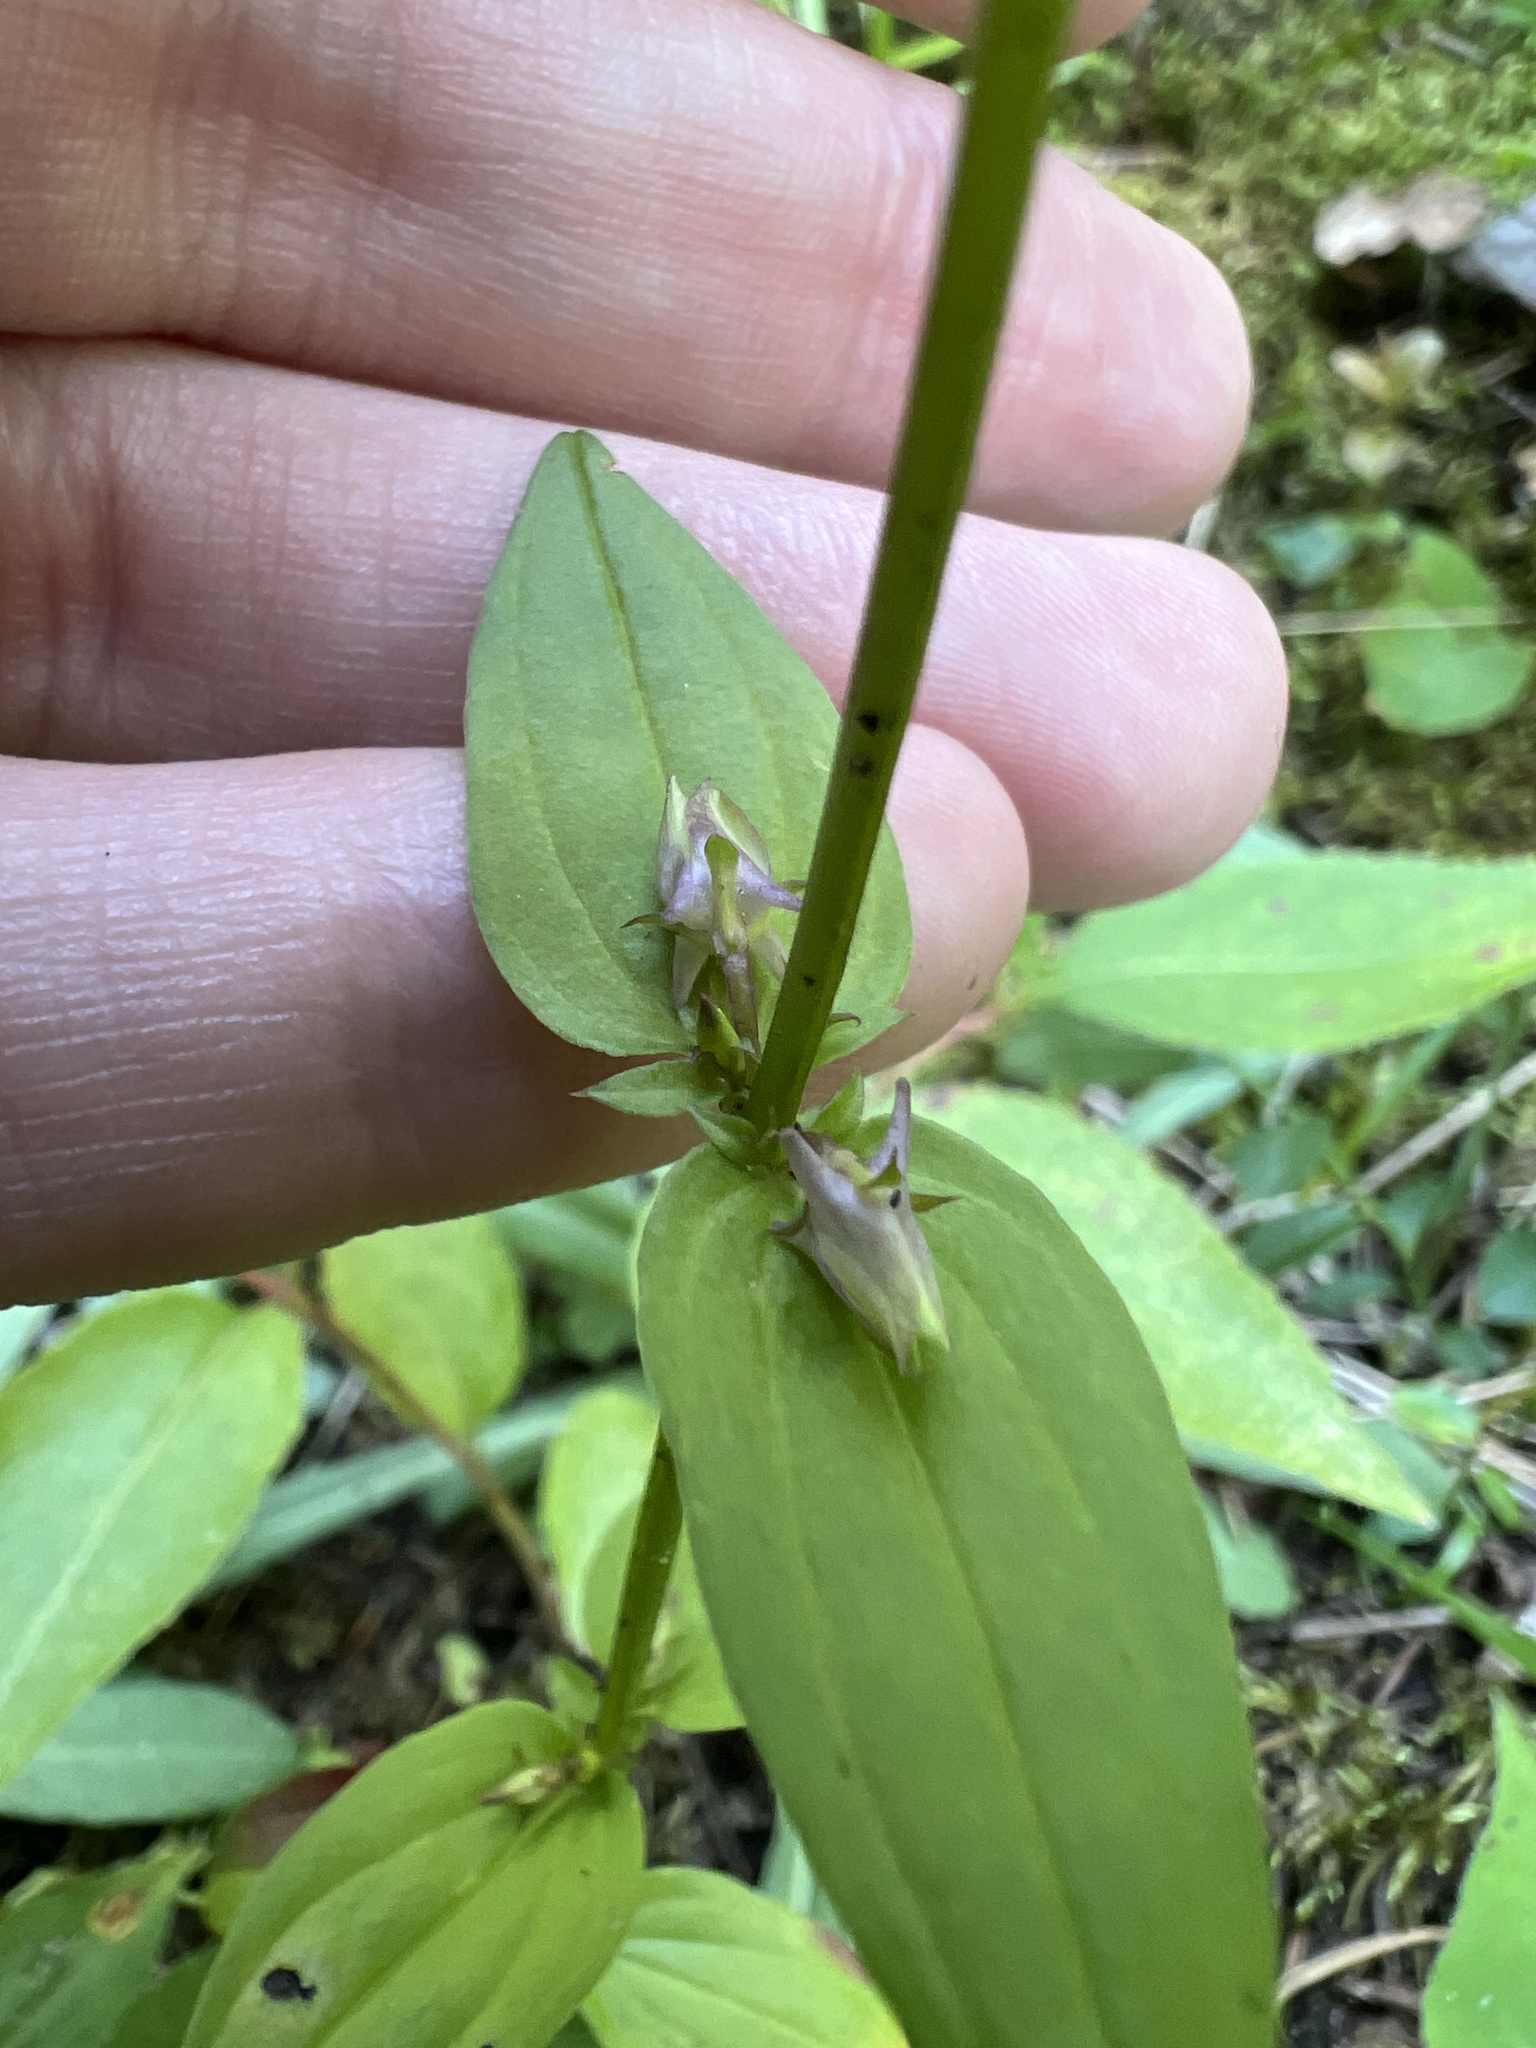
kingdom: Plantae
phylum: Tracheophyta
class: Magnoliopsida
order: Gentianales
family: Gentianaceae
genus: Halenia
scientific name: Halenia deflexa
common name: American spurred gentian
